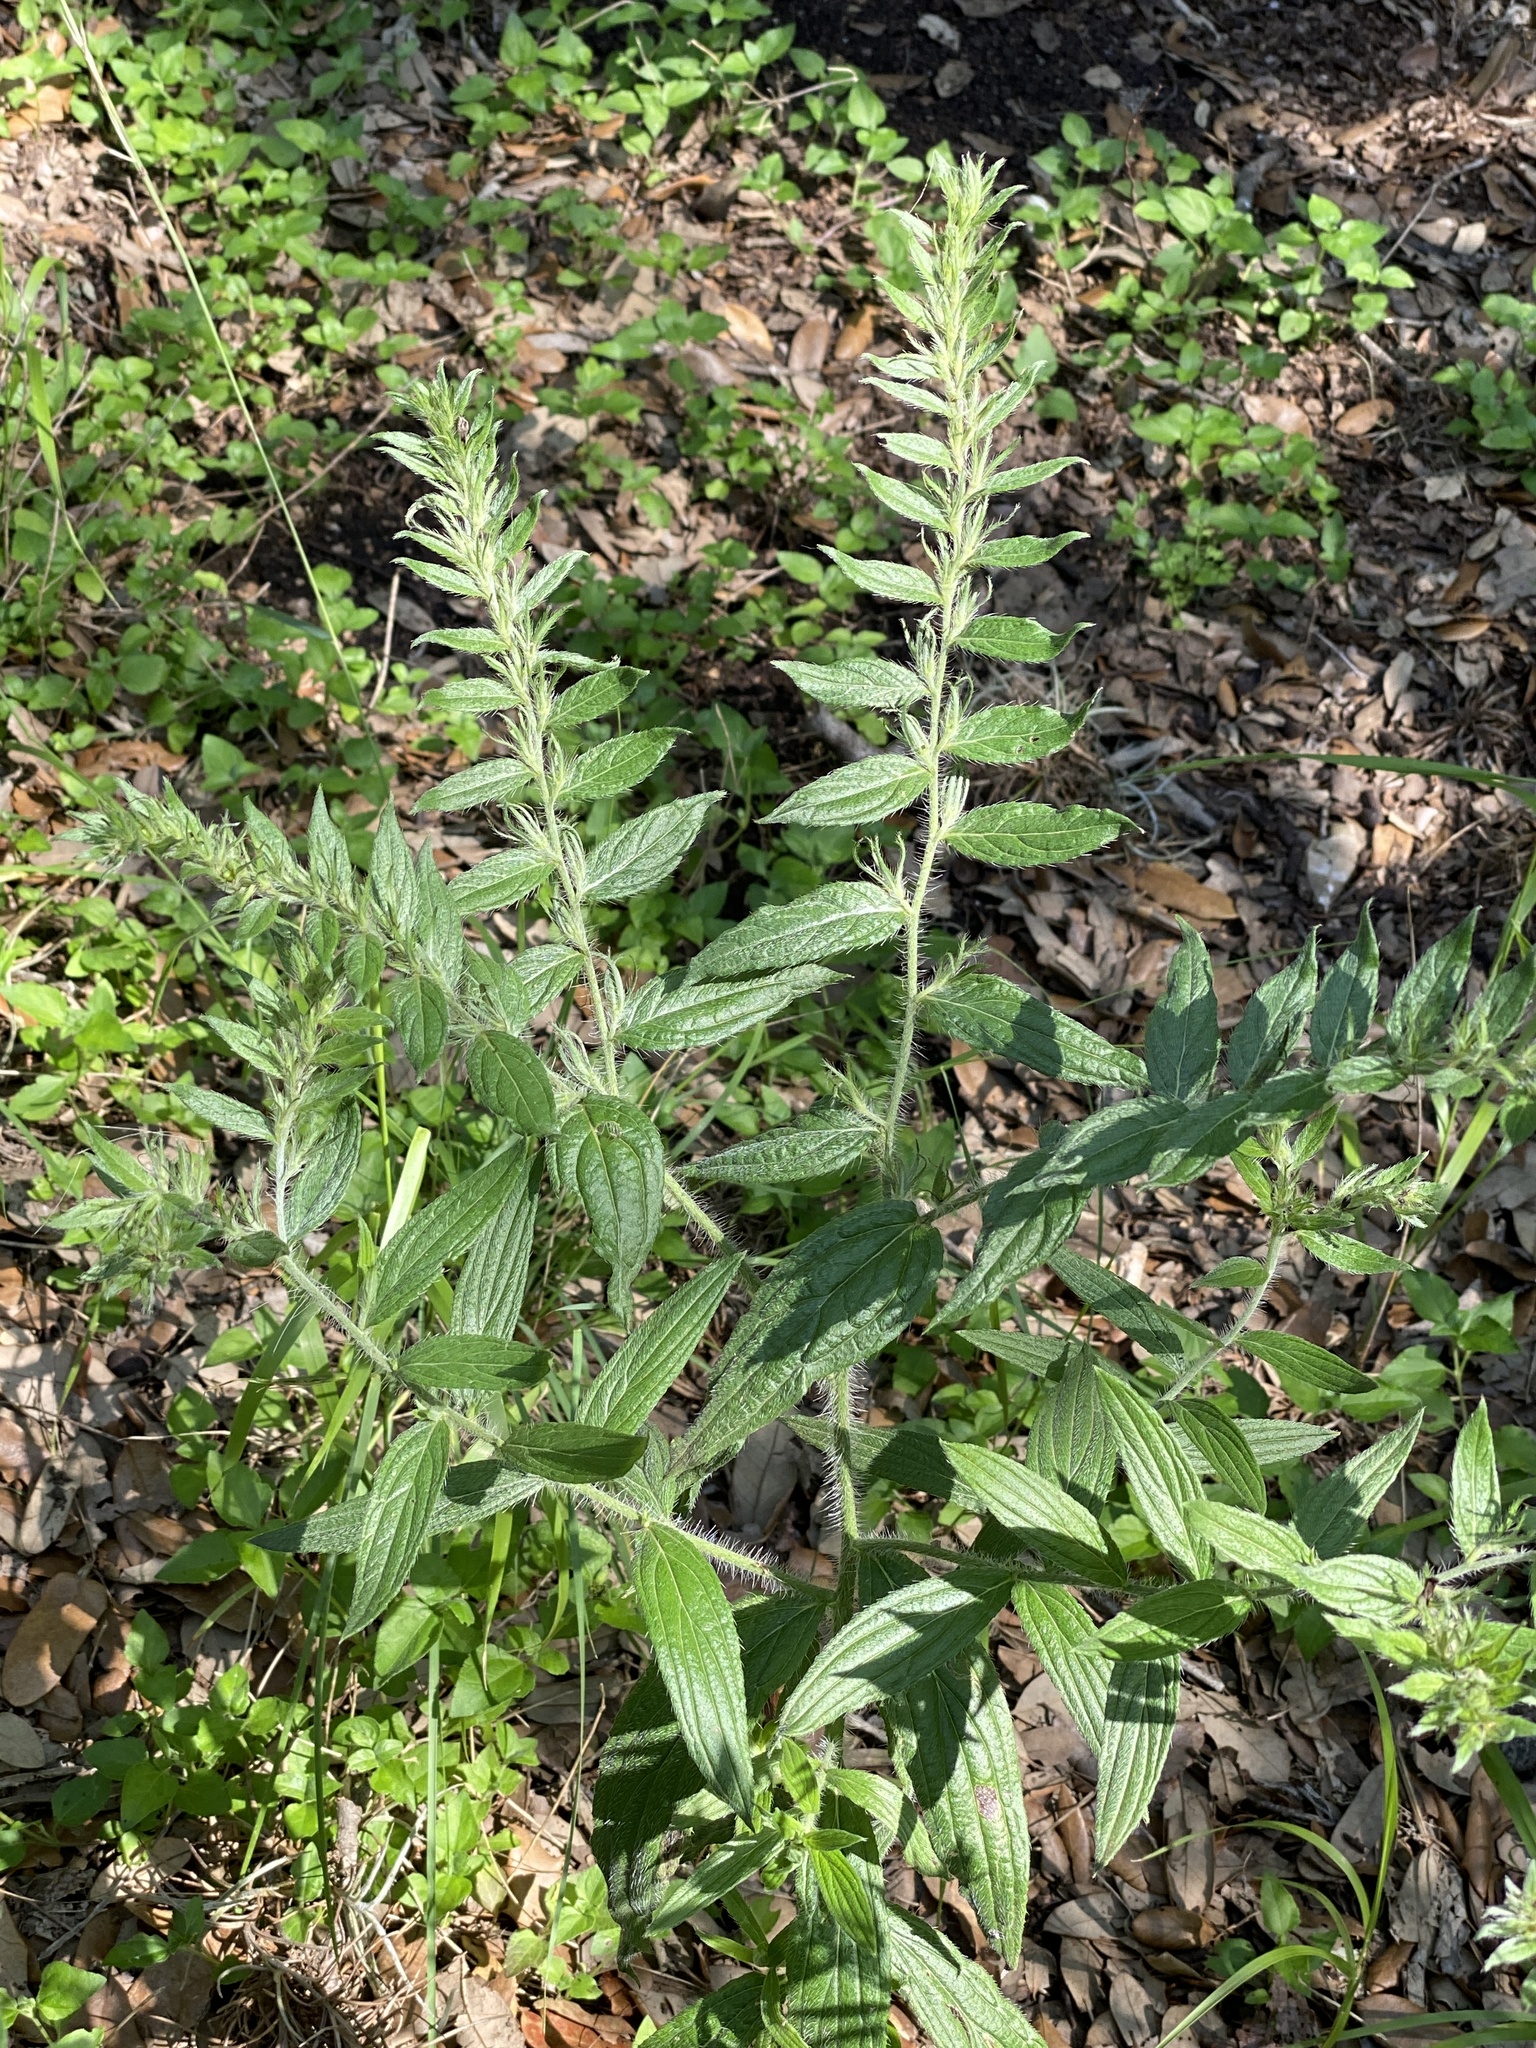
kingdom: Plantae
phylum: Tracheophyta
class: Magnoliopsida
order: Boraginales
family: Boraginaceae
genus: Lithospermum
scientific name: Lithospermum caroliniense
